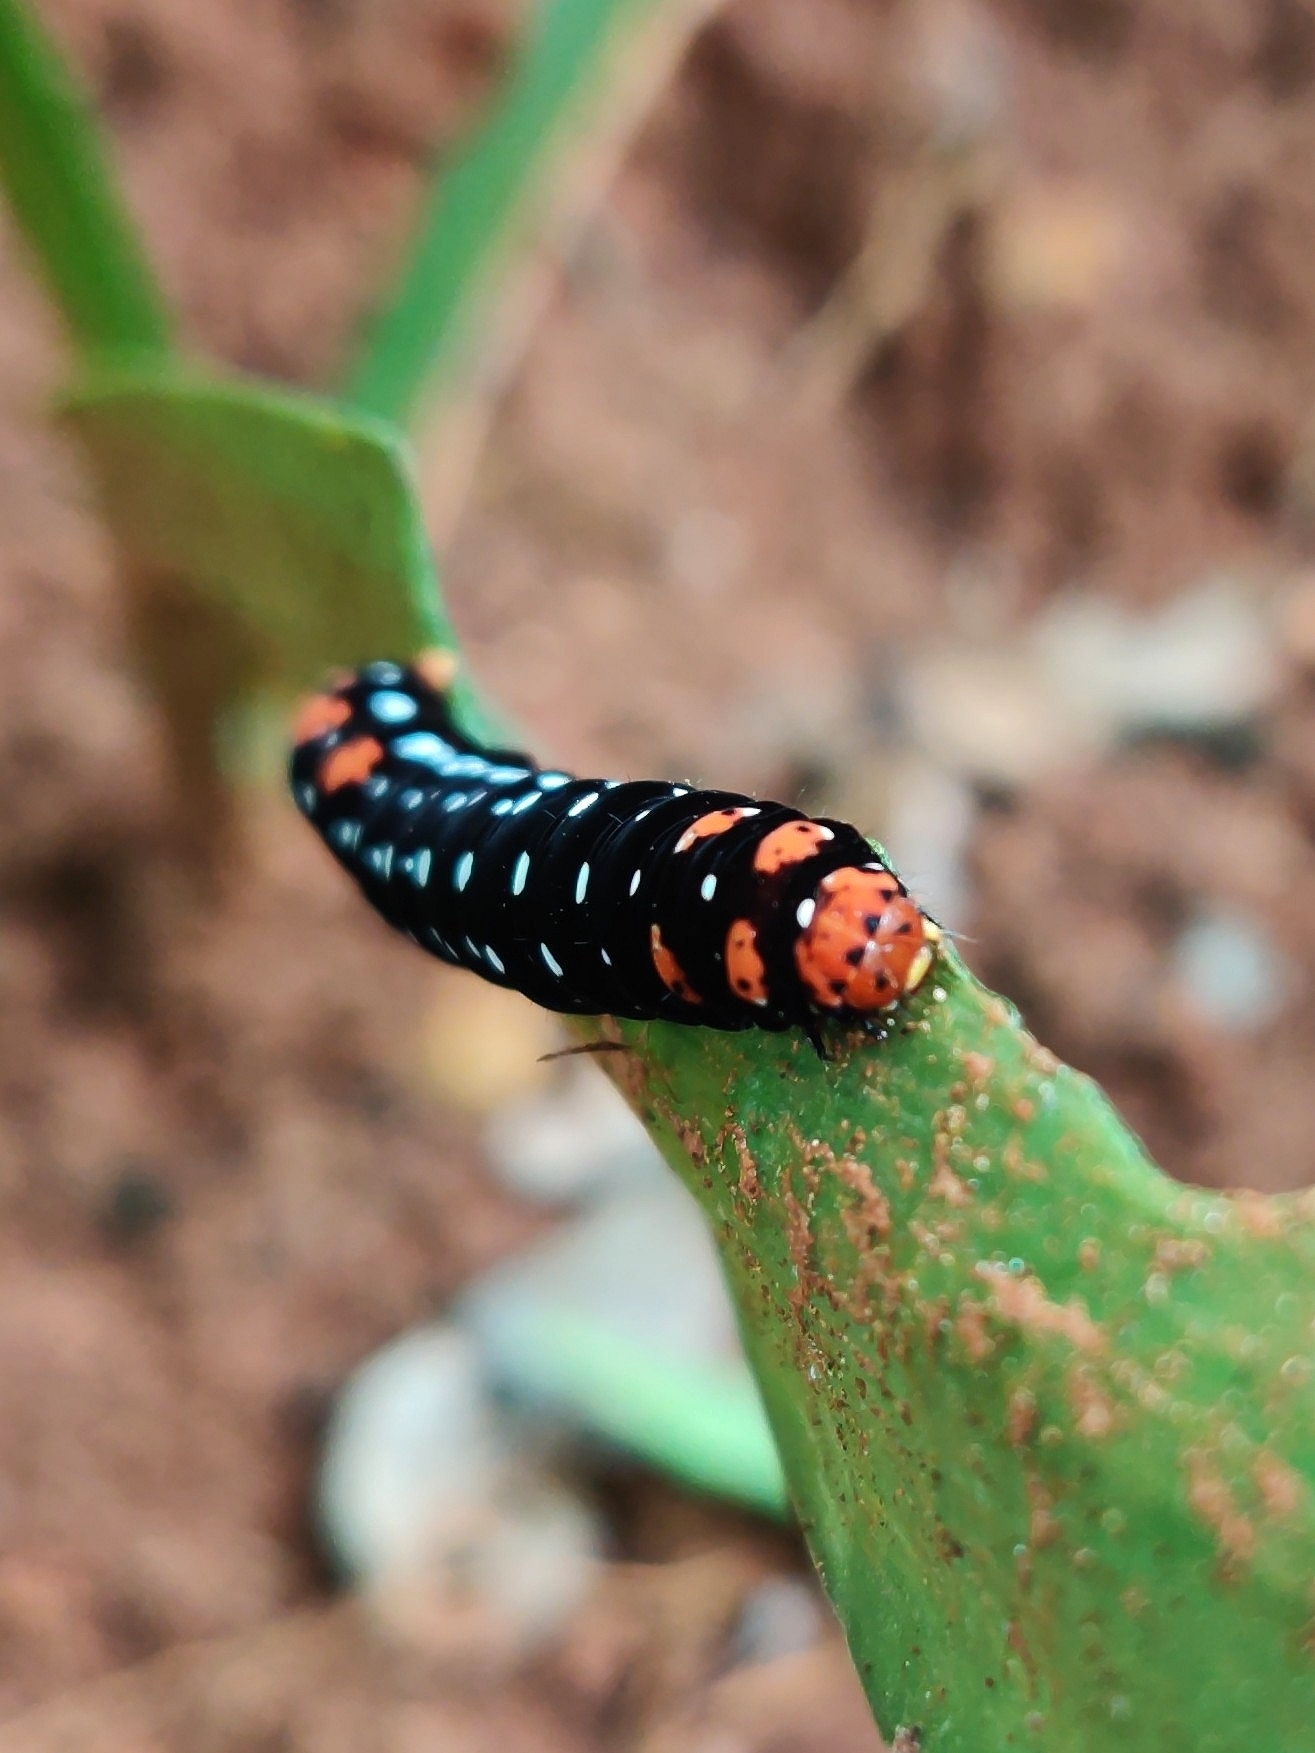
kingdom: Animalia
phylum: Arthropoda
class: Insecta
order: Lepidoptera
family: Noctuidae
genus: Polytela
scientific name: Polytela gloriosae
